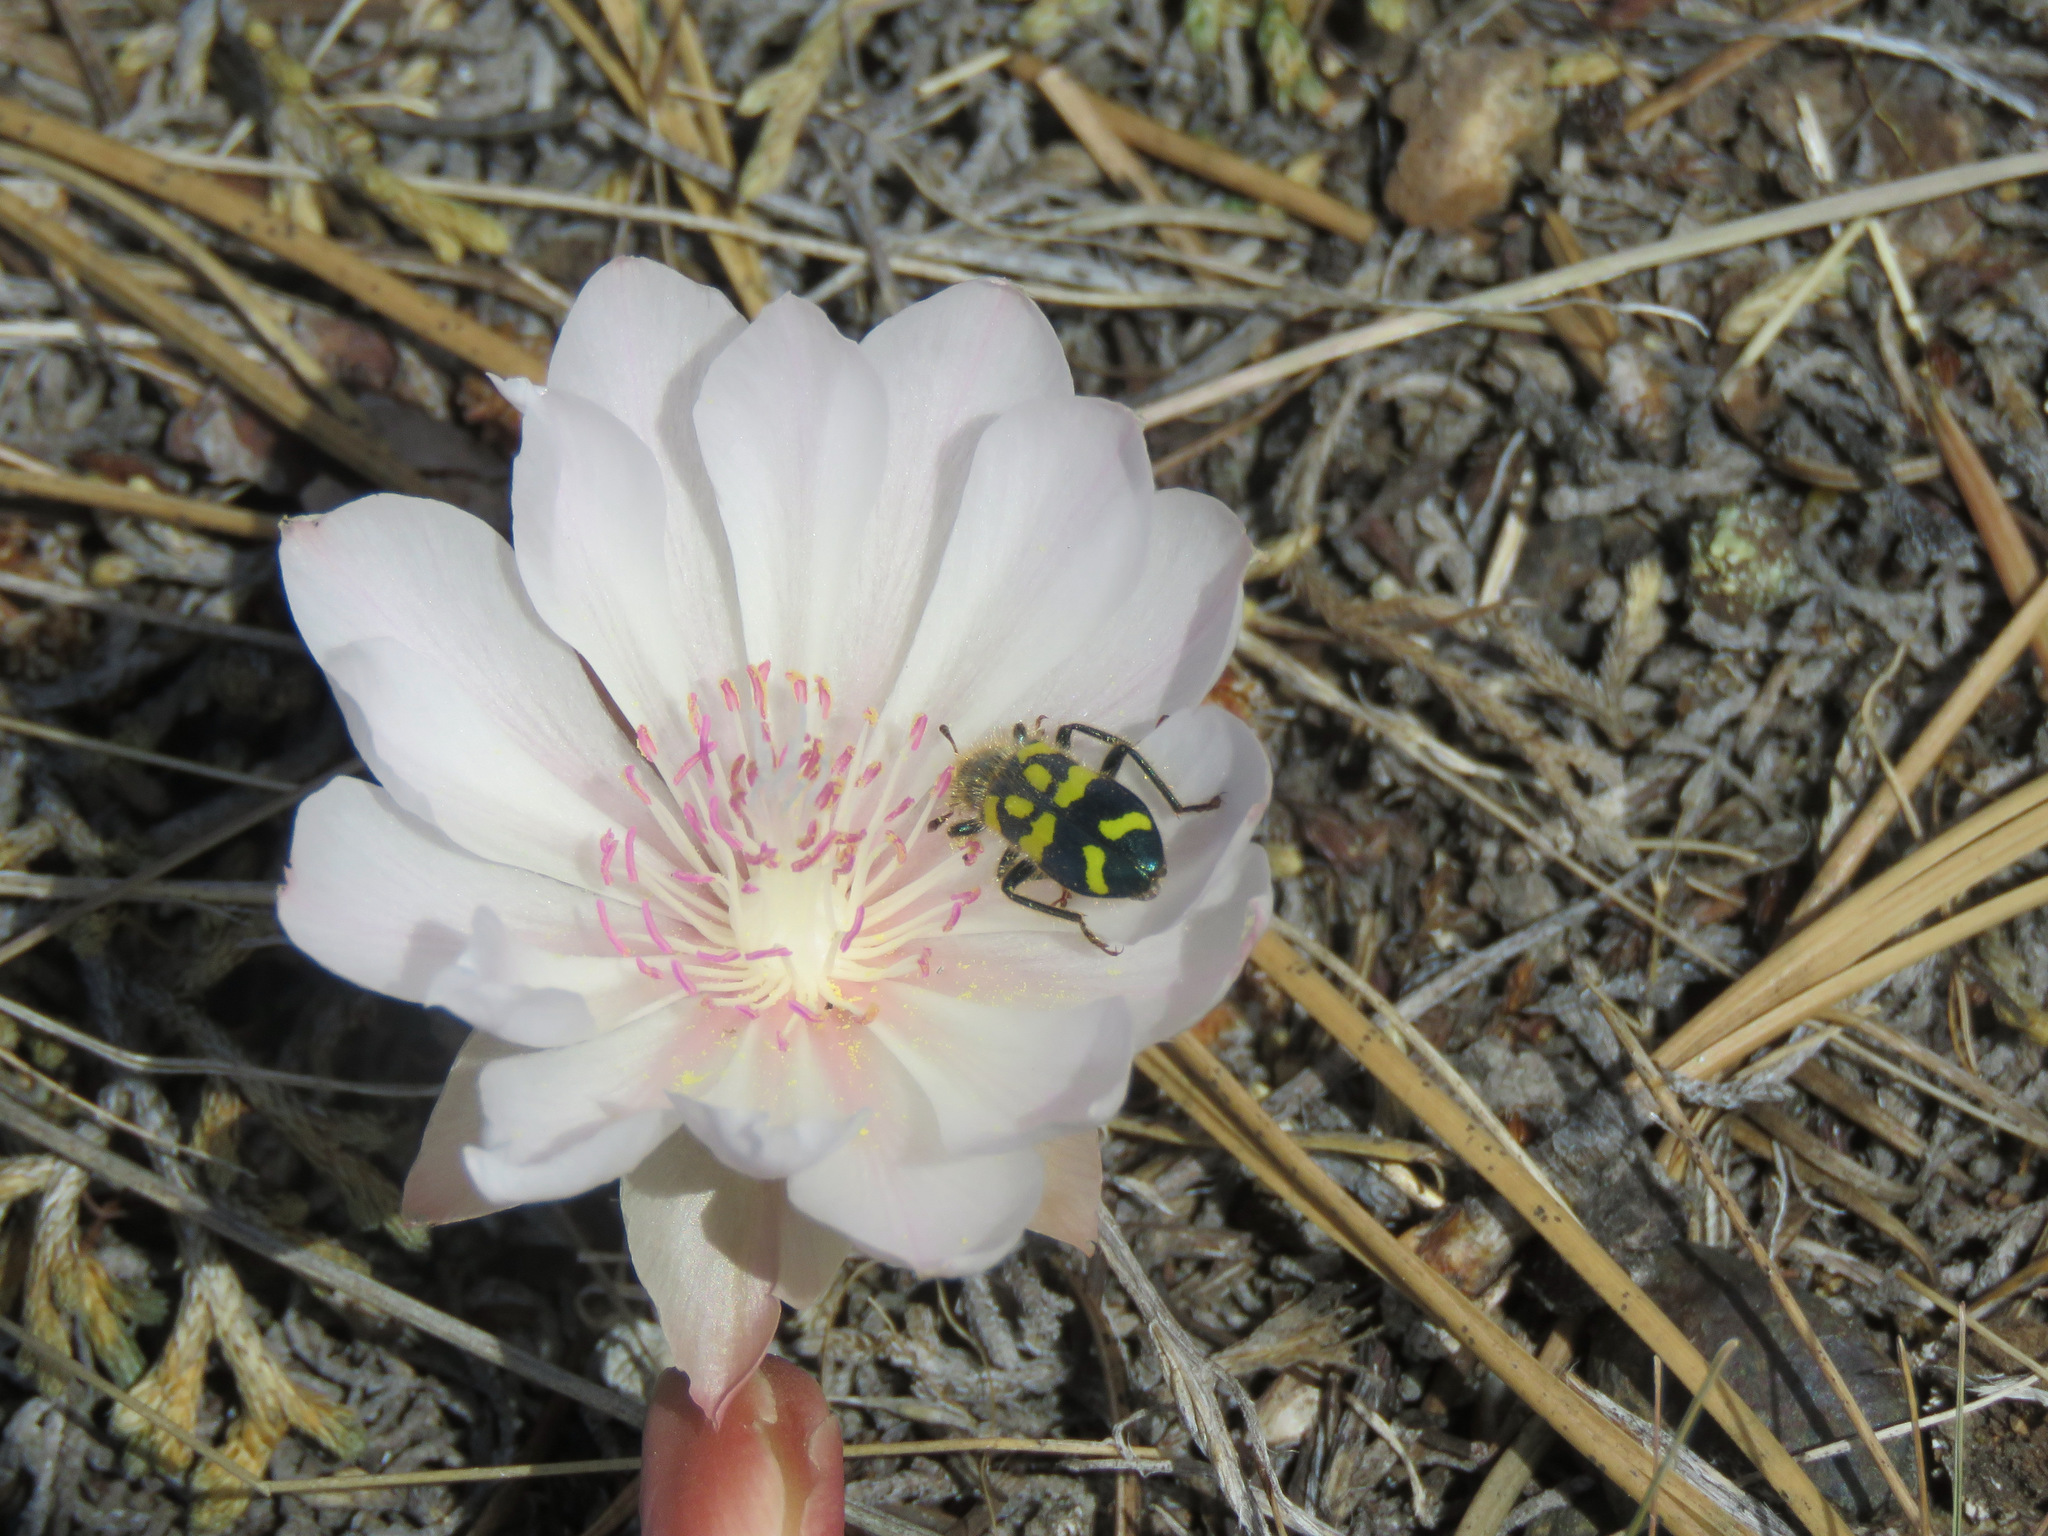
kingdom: Animalia
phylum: Arthropoda
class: Insecta
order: Coleoptera
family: Cleridae
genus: Trichodes
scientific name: Trichodes ornatus
